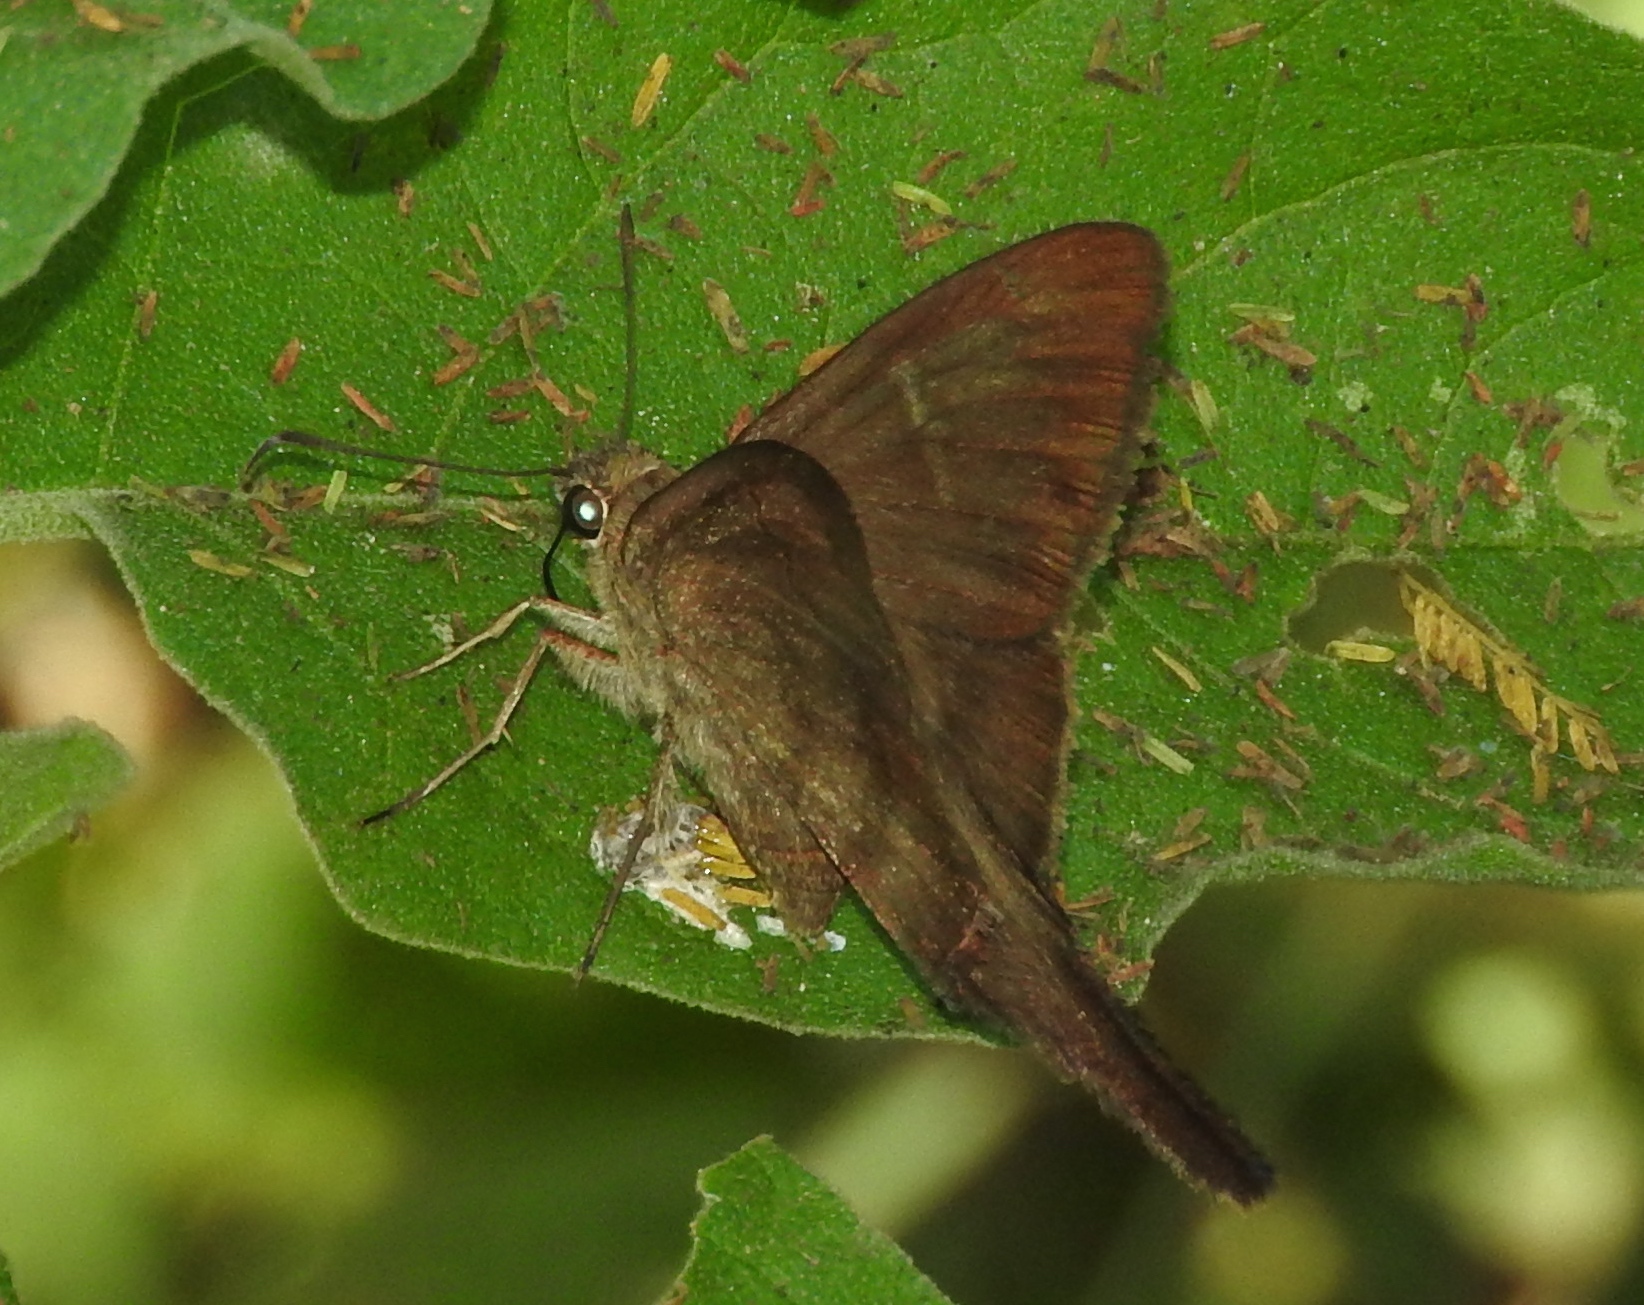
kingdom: Animalia
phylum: Arthropoda
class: Insecta
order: Lepidoptera
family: Hesperiidae
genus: Urbanus
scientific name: Urbanus simplicius
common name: Plain longtail
